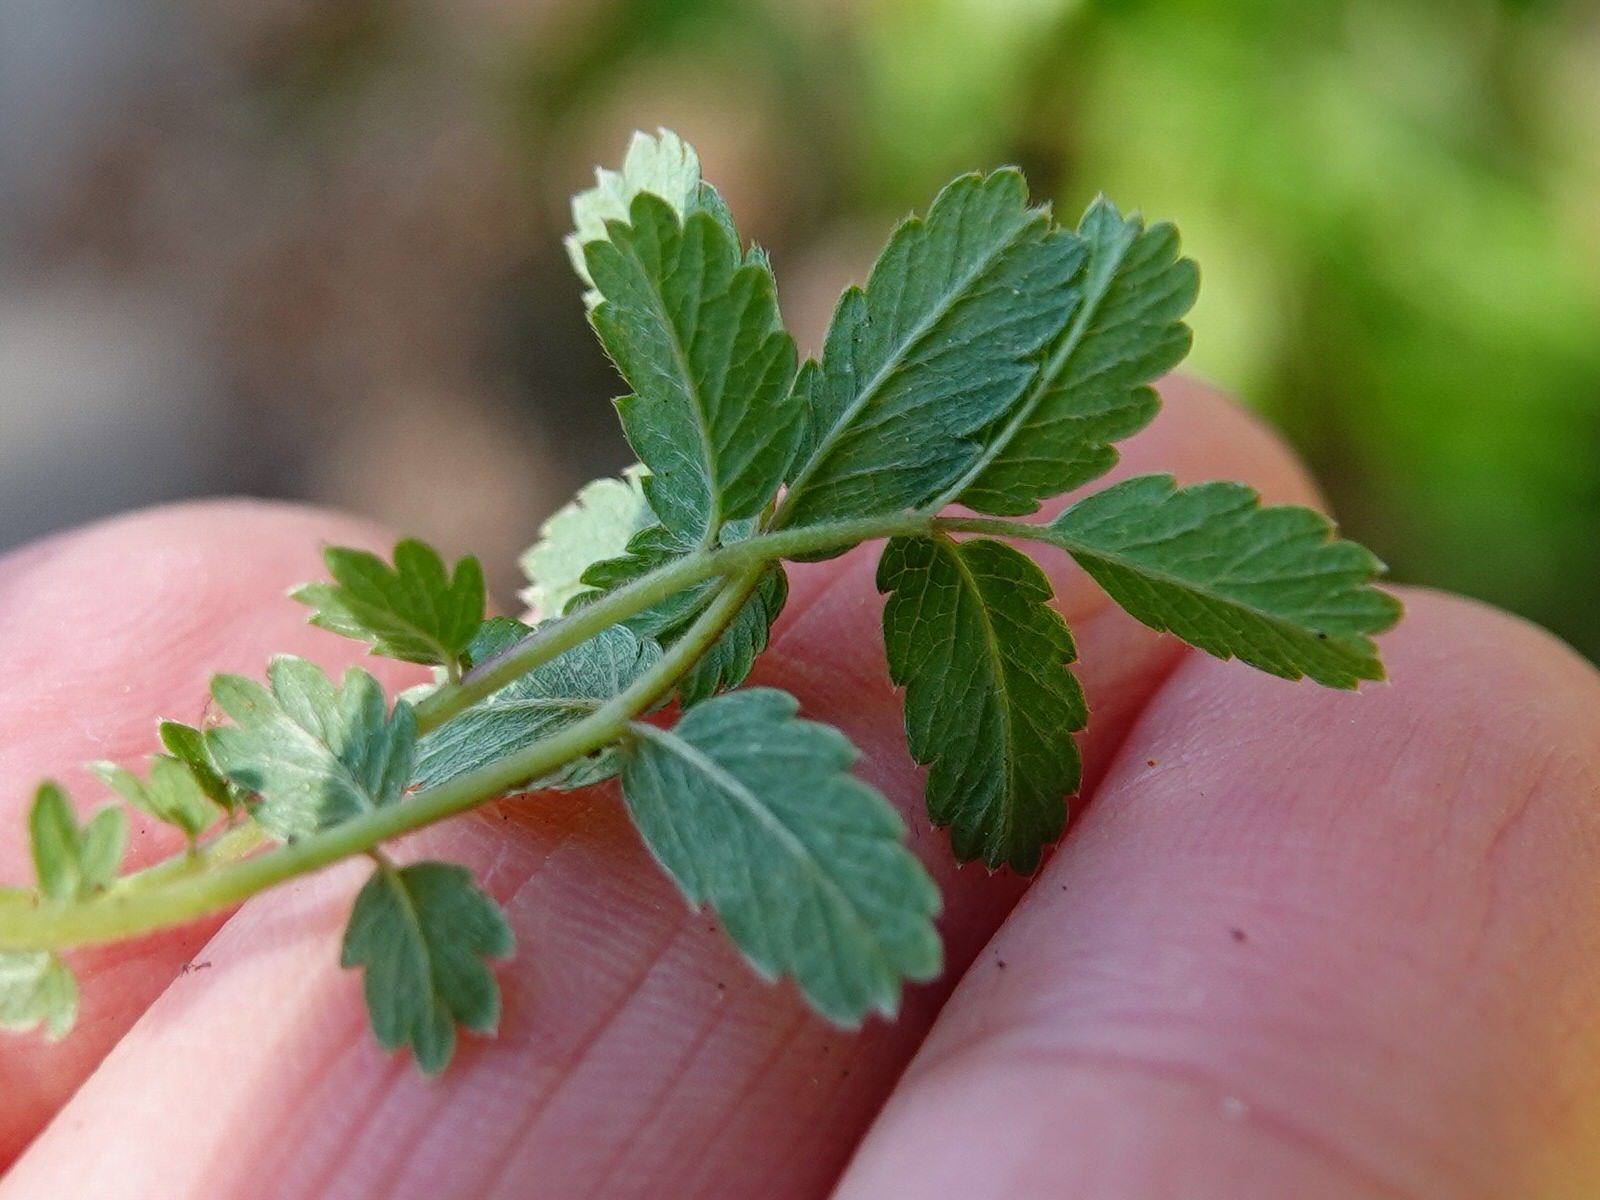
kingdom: Plantae
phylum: Tracheophyta
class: Magnoliopsida
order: Rosales
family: Rosaceae
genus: Acaena
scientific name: Acaena novae-zelandiae
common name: Pirri-pirri-bur
